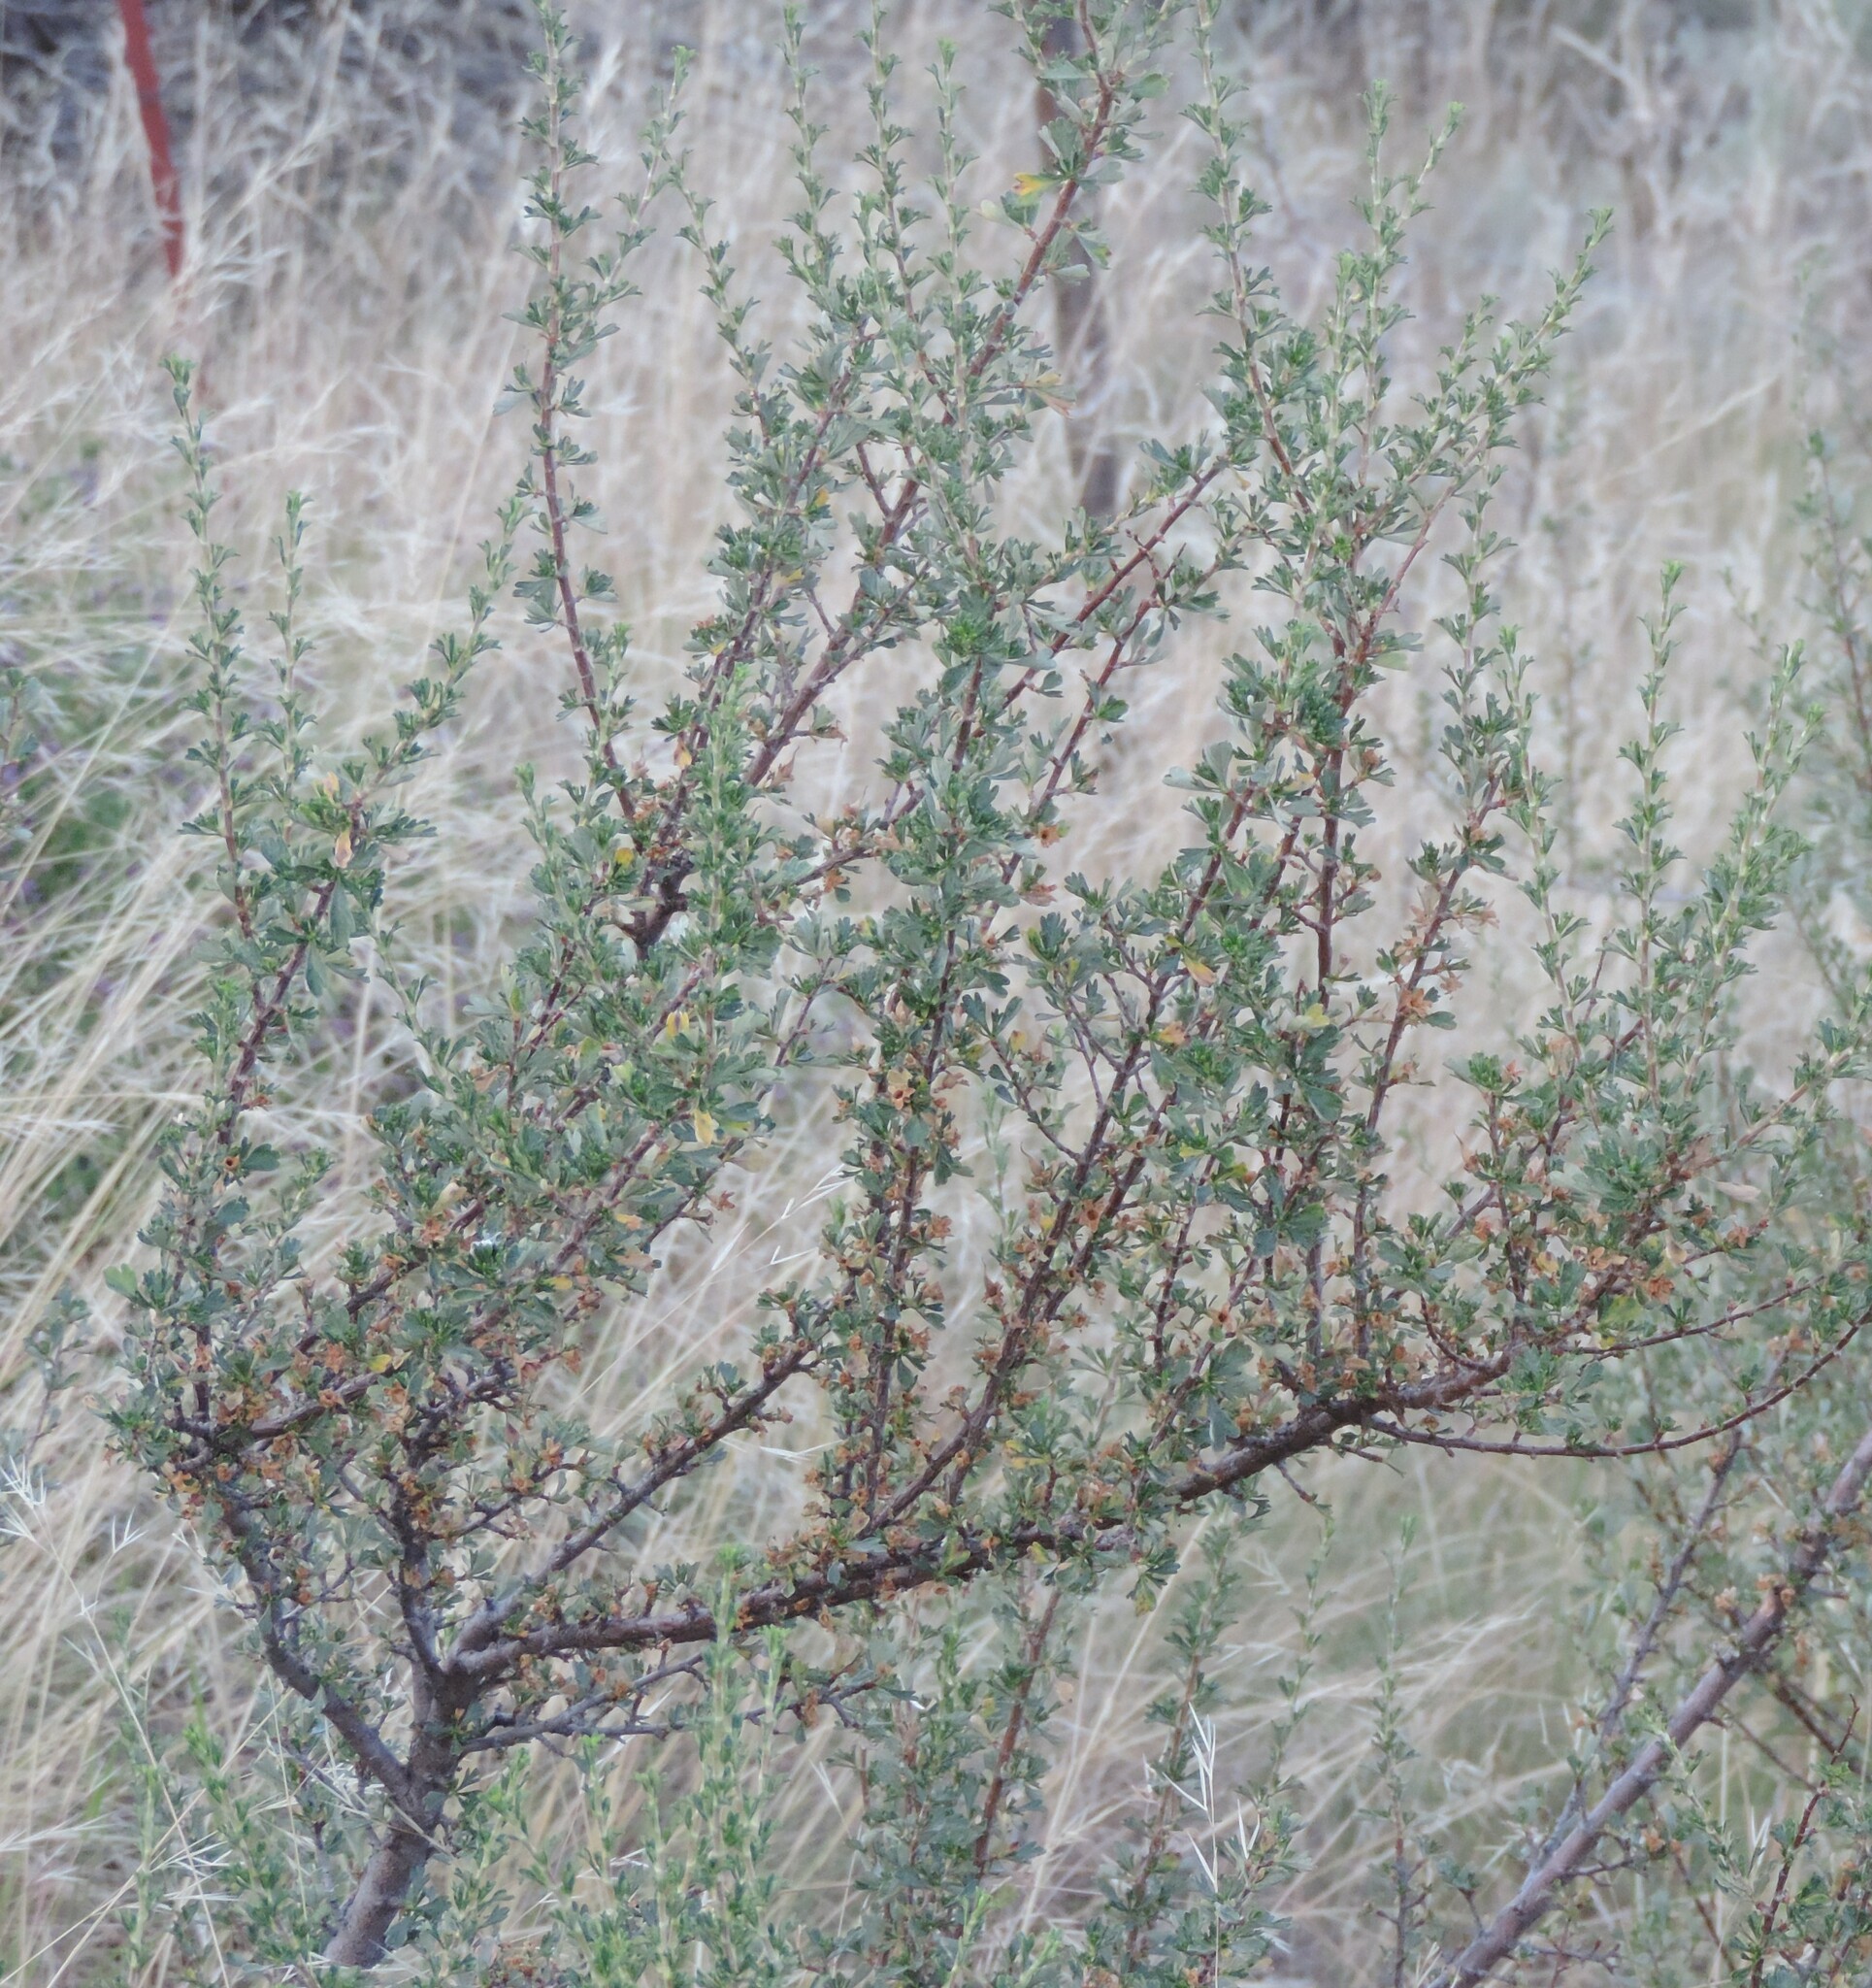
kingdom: Plantae
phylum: Tracheophyta
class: Magnoliopsida
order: Rosales
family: Rosaceae
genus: Purshia
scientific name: Purshia tridentata
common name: Antelope bitterbrush
